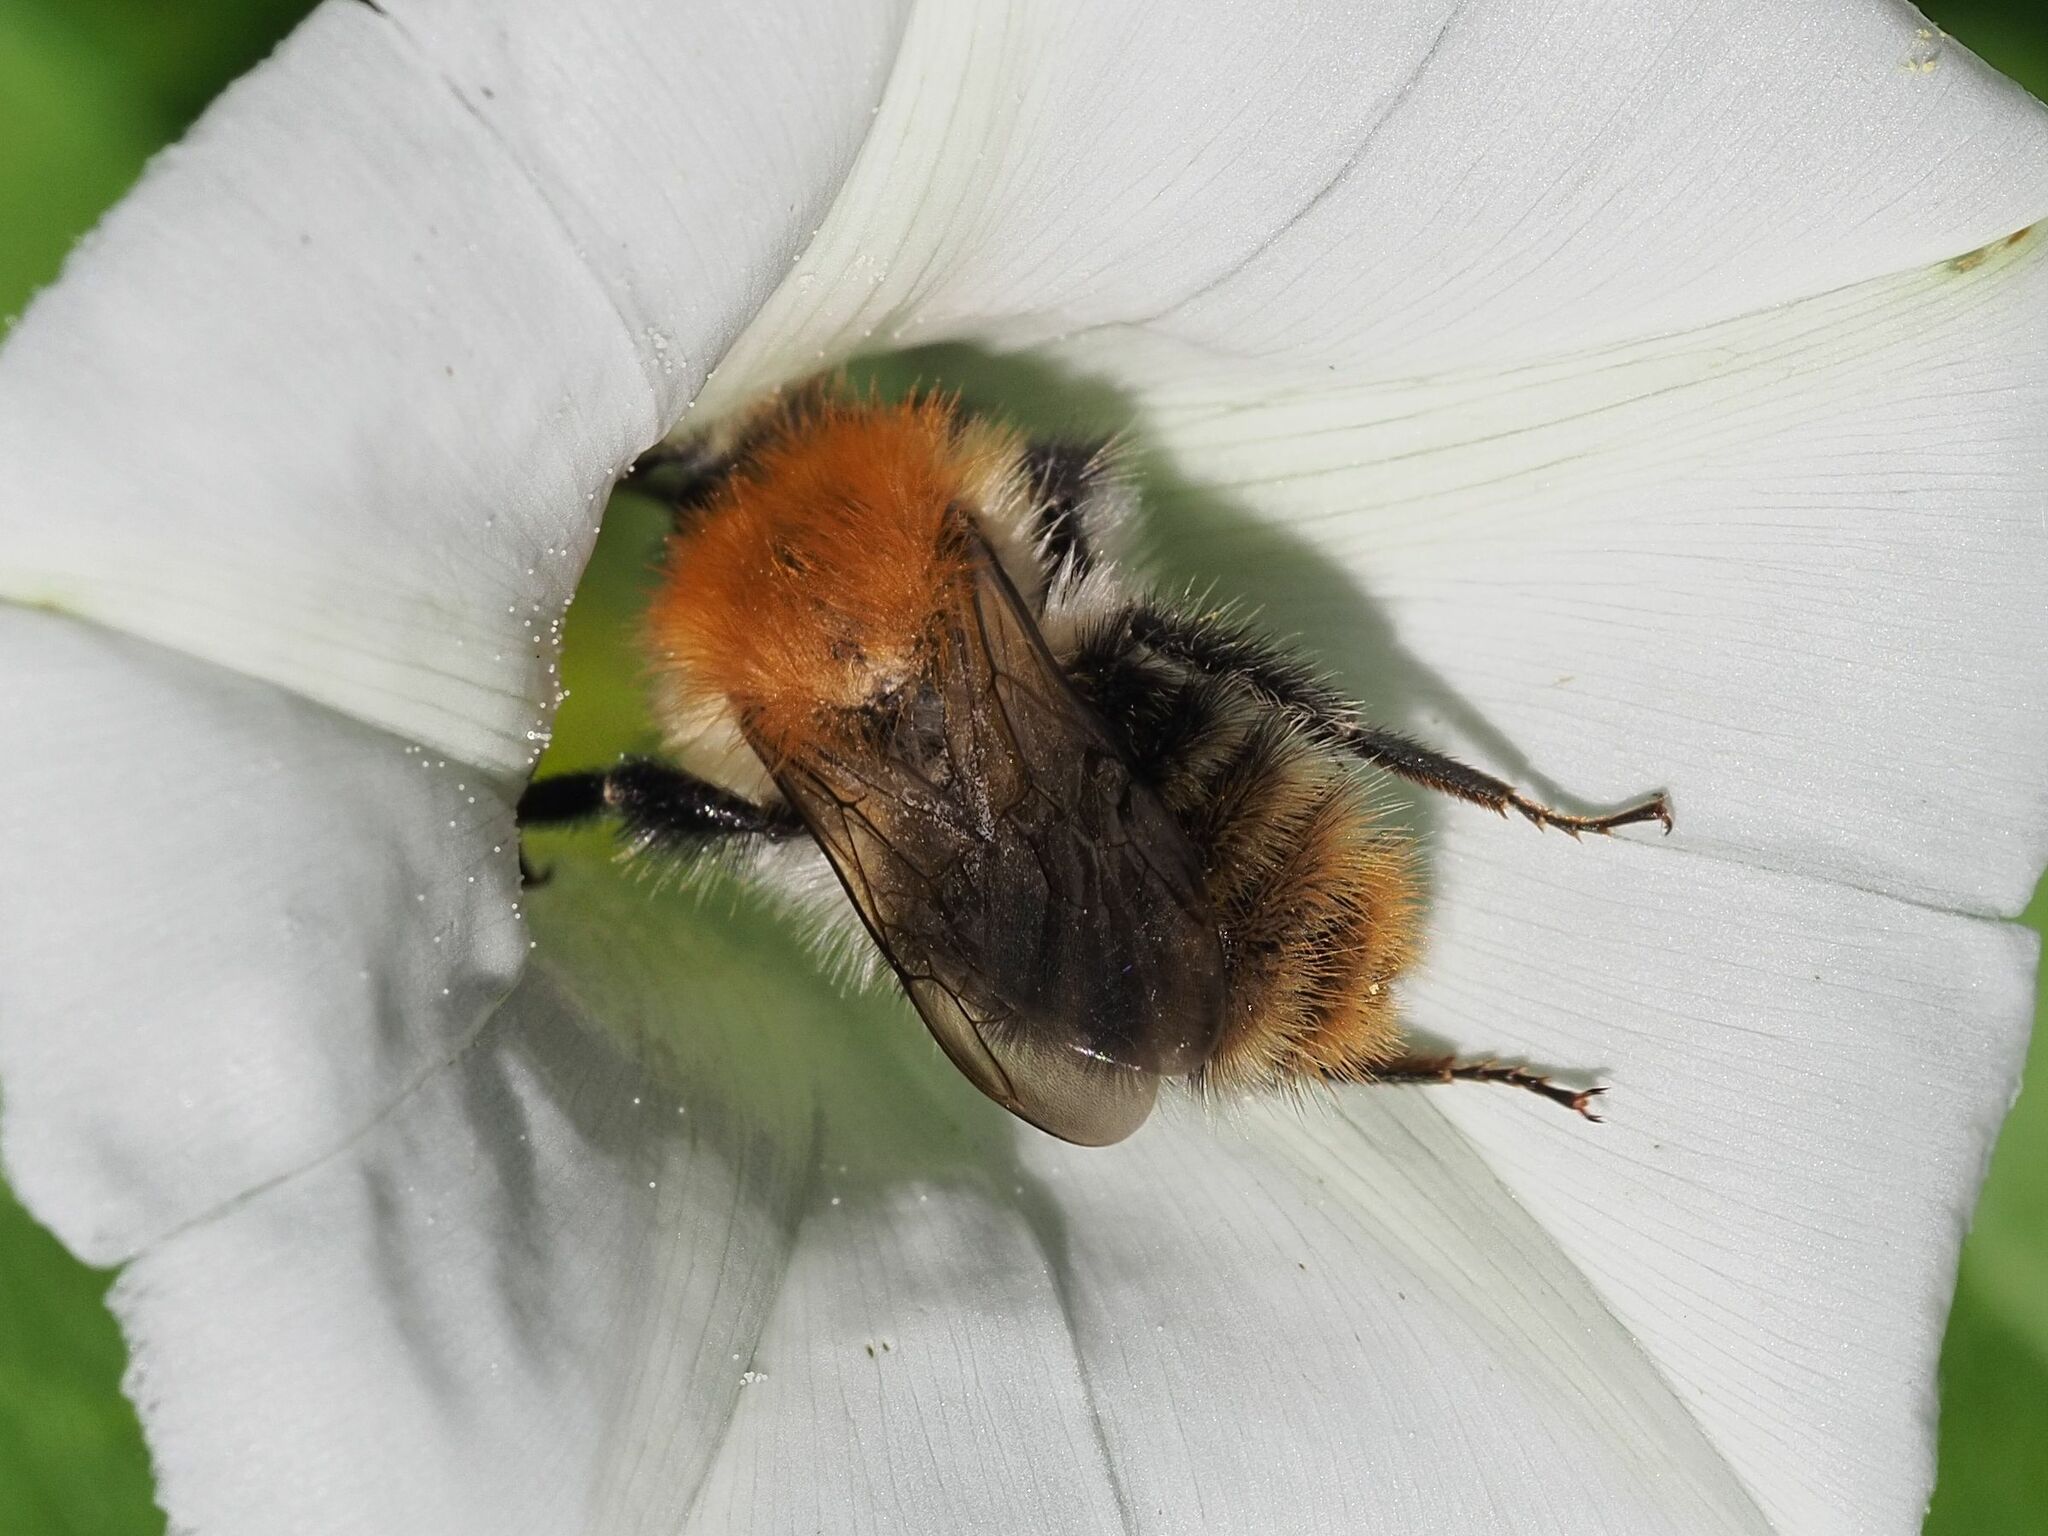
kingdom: Animalia
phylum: Arthropoda
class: Insecta
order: Hymenoptera
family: Apidae
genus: Bombus
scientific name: Bombus pascuorum
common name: Common carder bee
